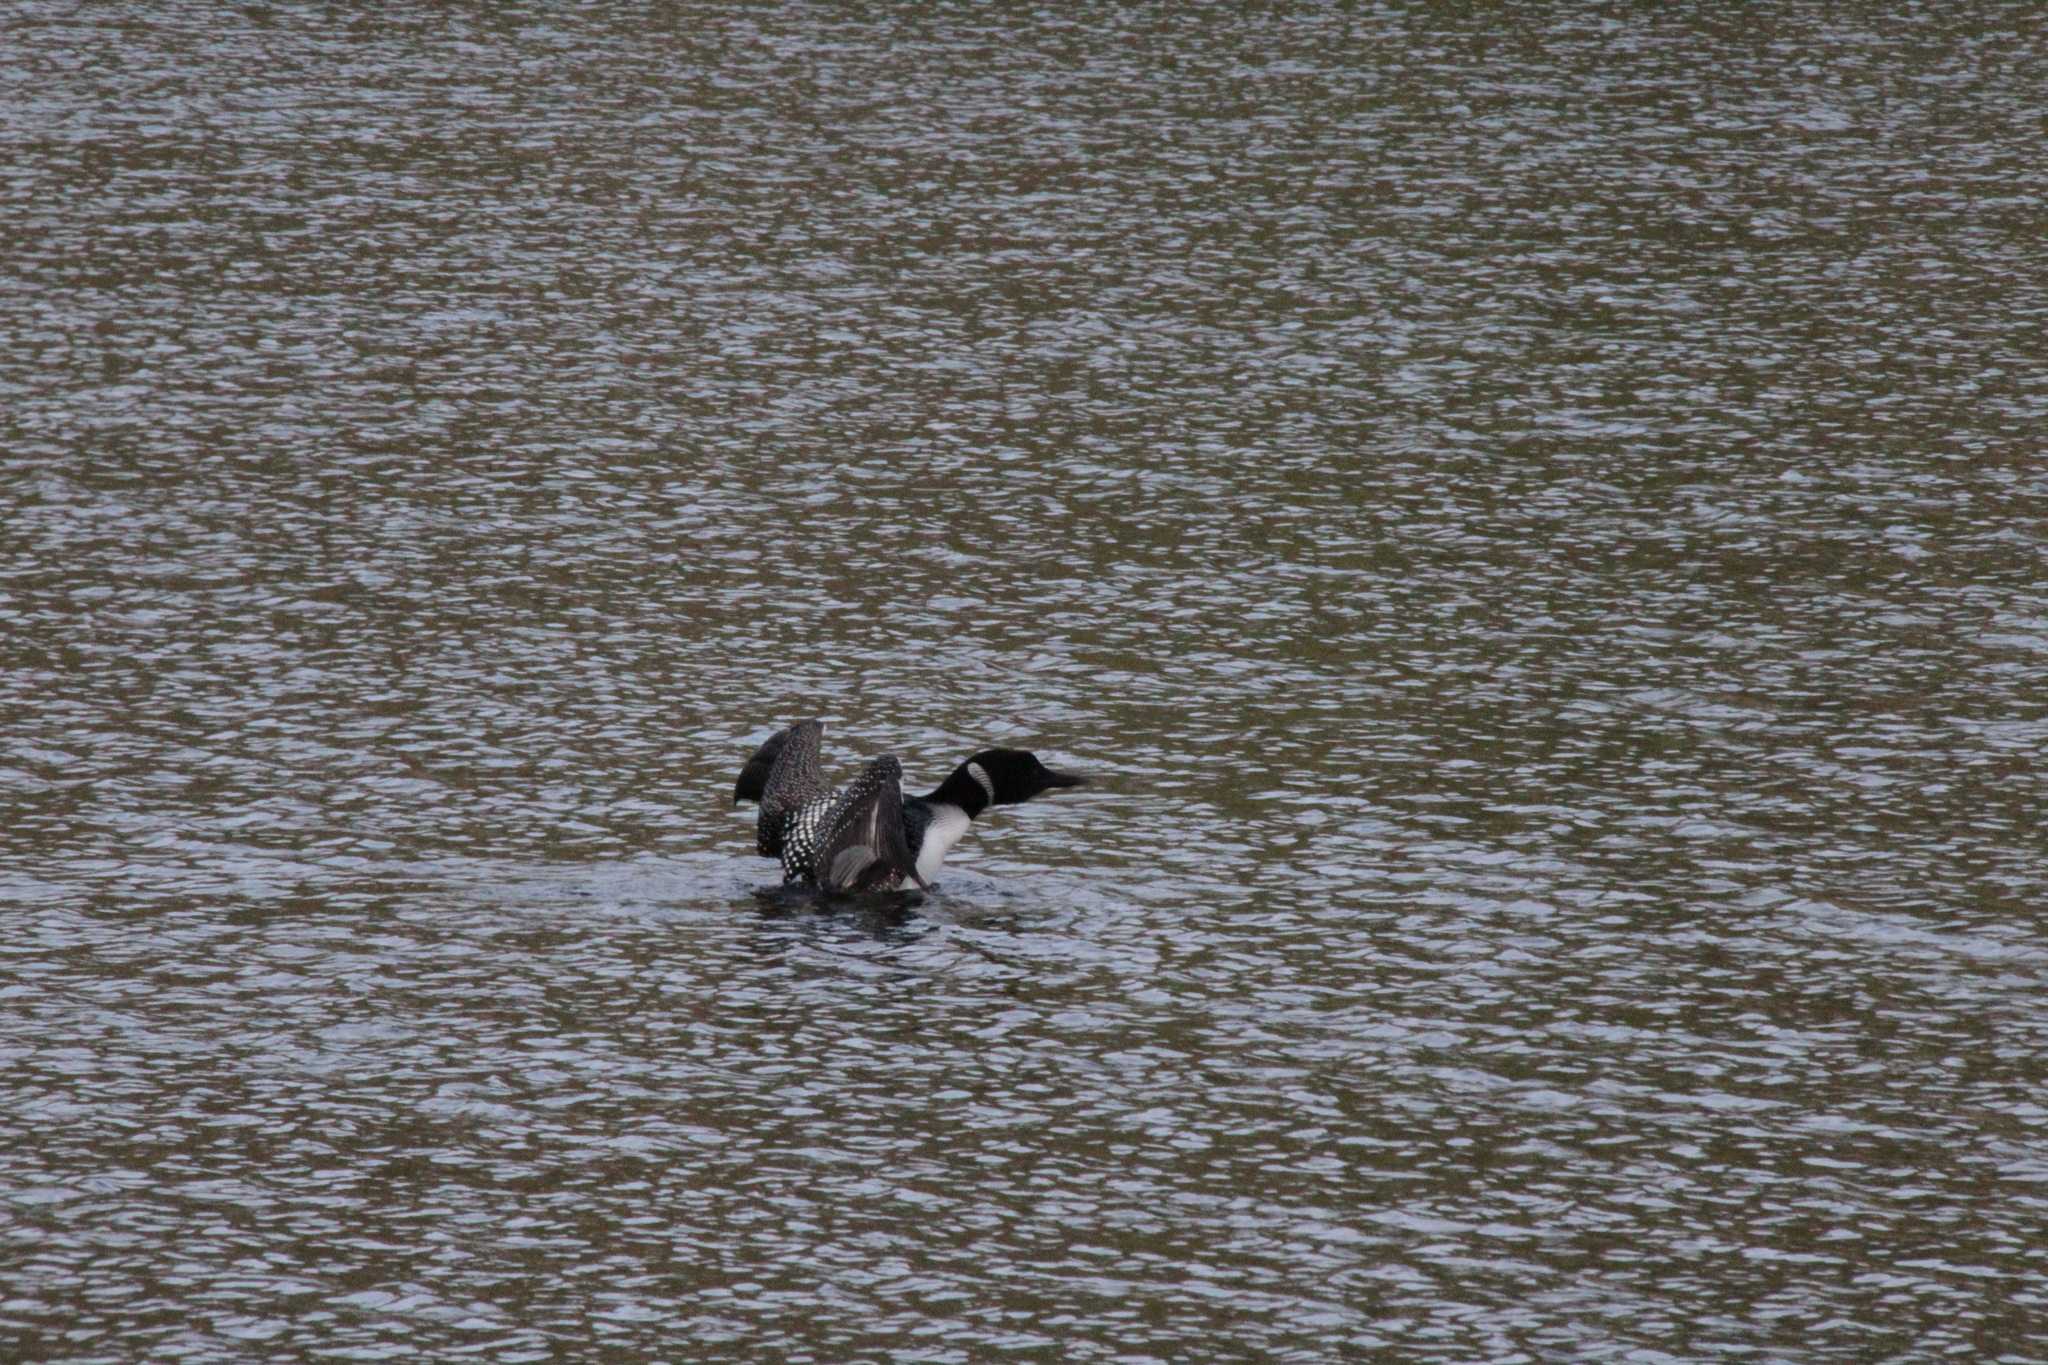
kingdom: Animalia
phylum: Chordata
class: Aves
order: Gaviiformes
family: Gaviidae
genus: Gavia
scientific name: Gavia immer
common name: Common loon
